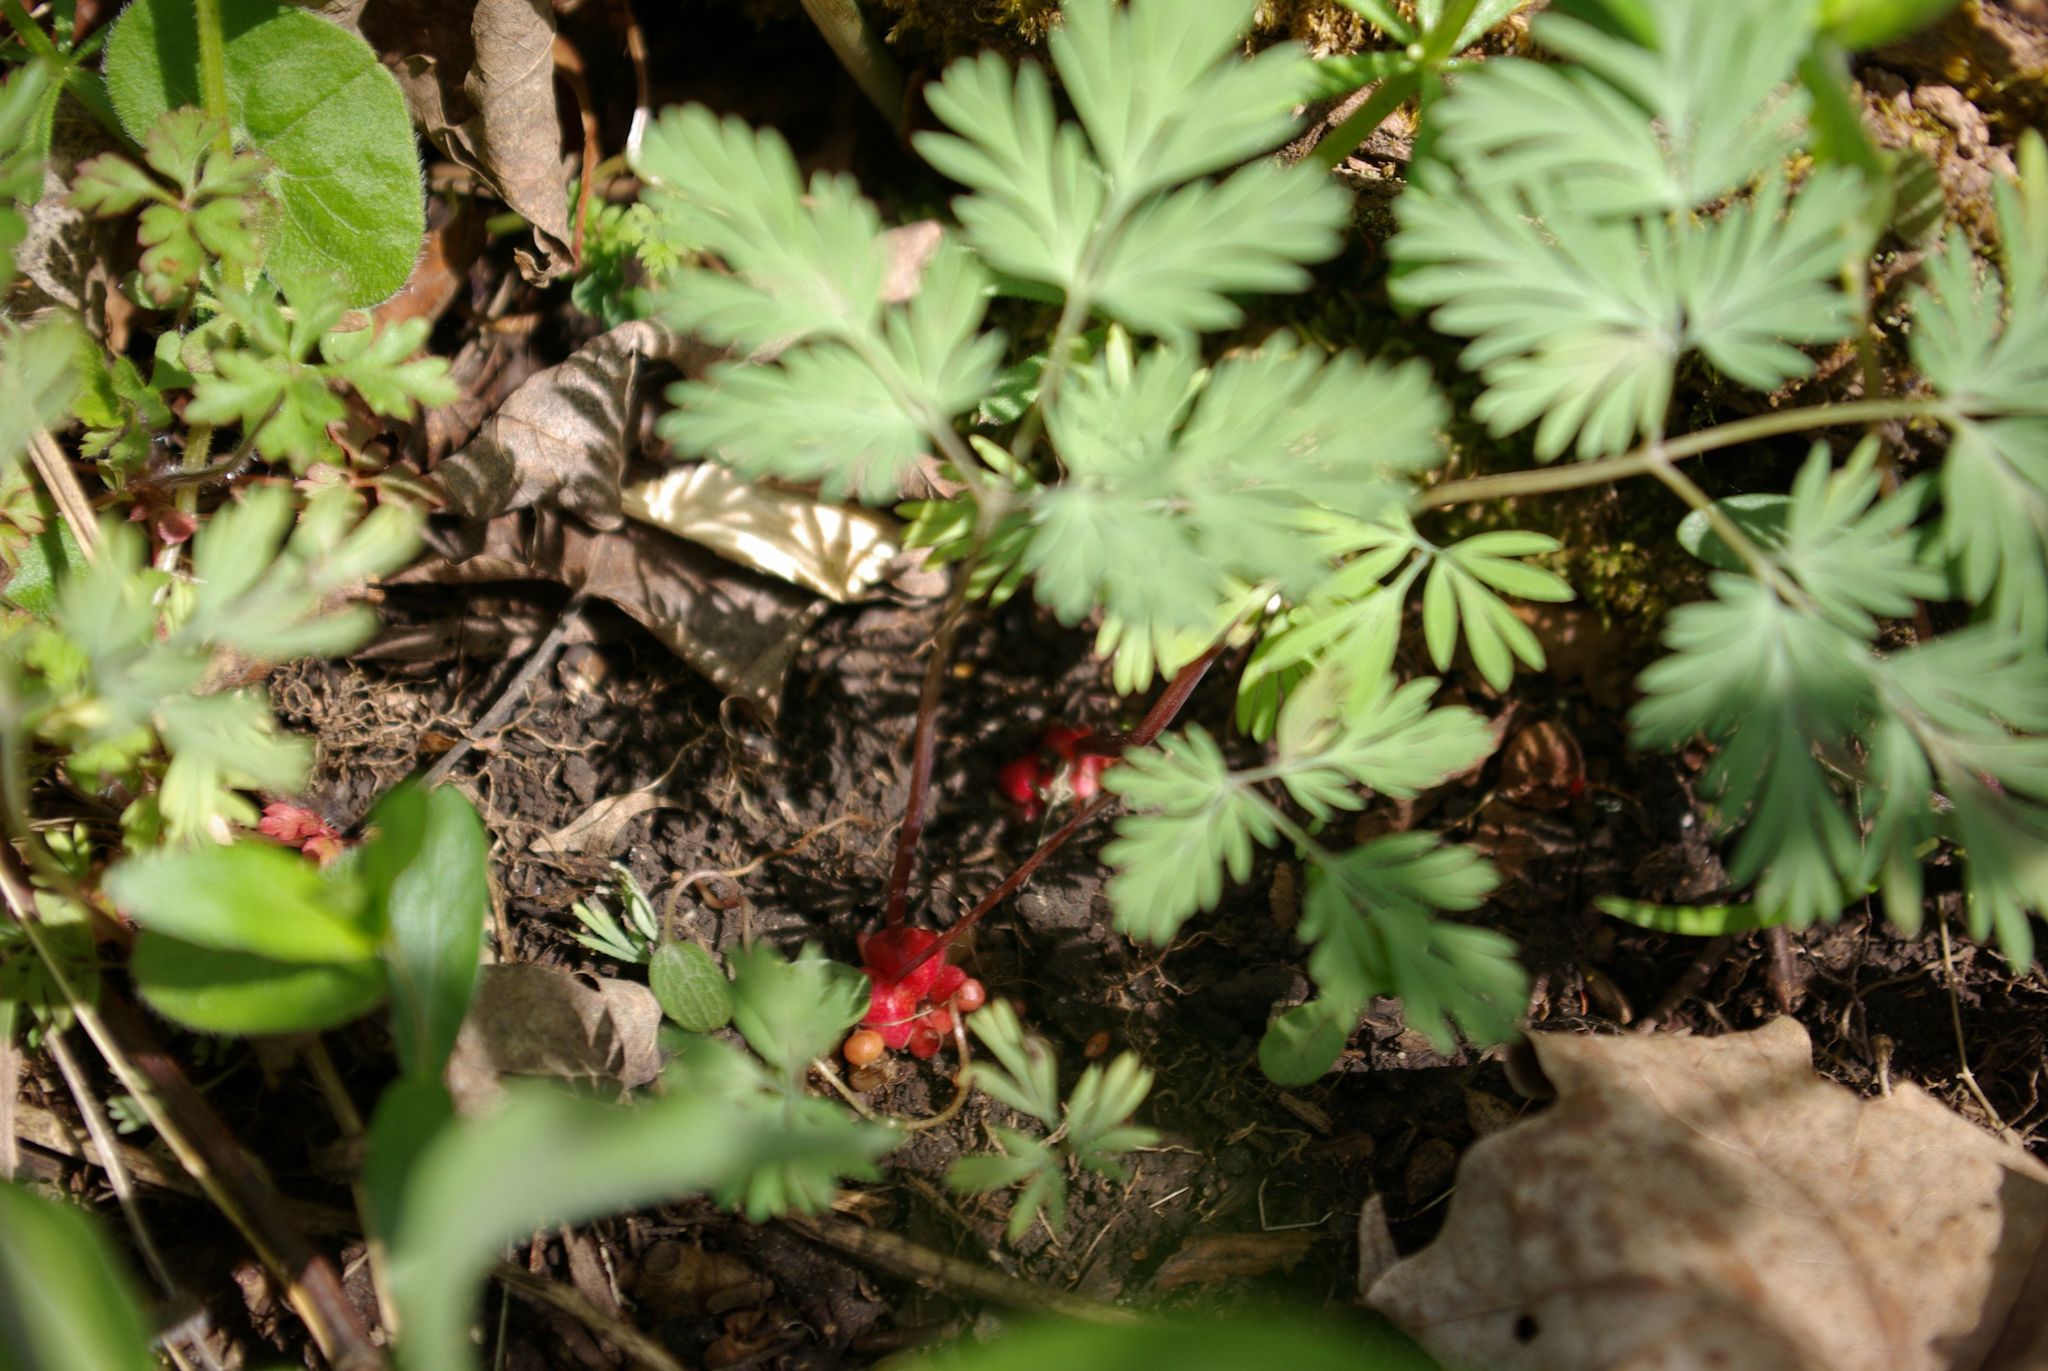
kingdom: Plantae
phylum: Tracheophyta
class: Magnoliopsida
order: Ranunculales
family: Papaveraceae
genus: Dicentra
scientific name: Dicentra cucullaria
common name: Dutchman's breeches
